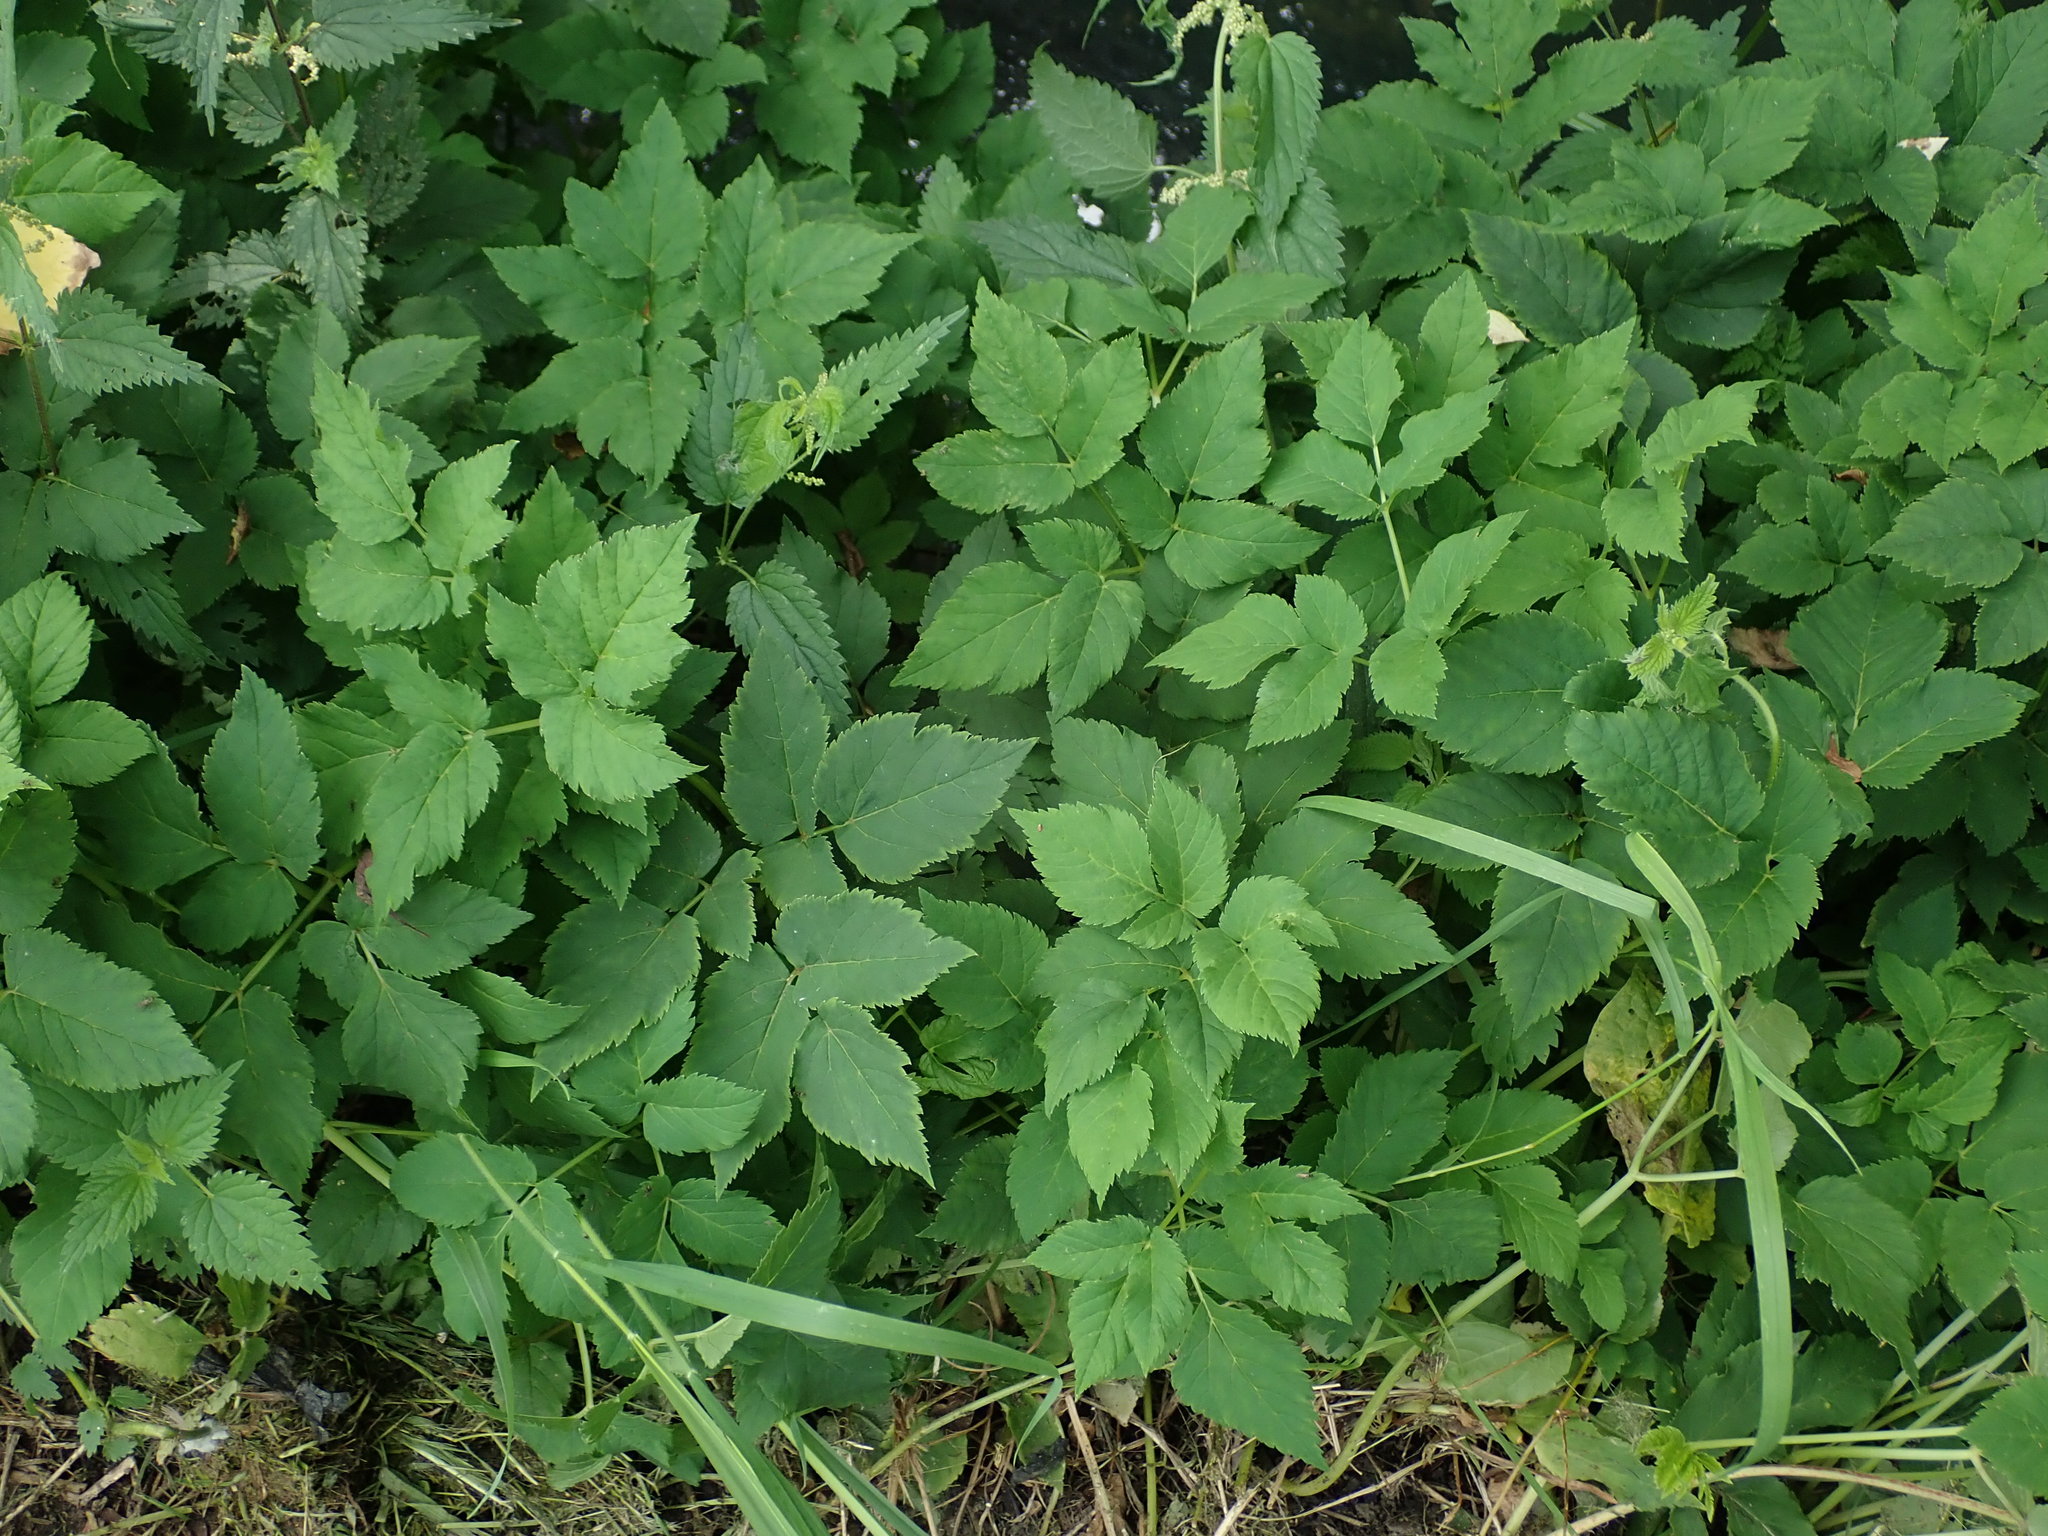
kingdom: Plantae
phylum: Tracheophyta
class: Magnoliopsida
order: Apiales
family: Apiaceae
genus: Aegopodium
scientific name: Aegopodium podagraria
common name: Ground-elder
